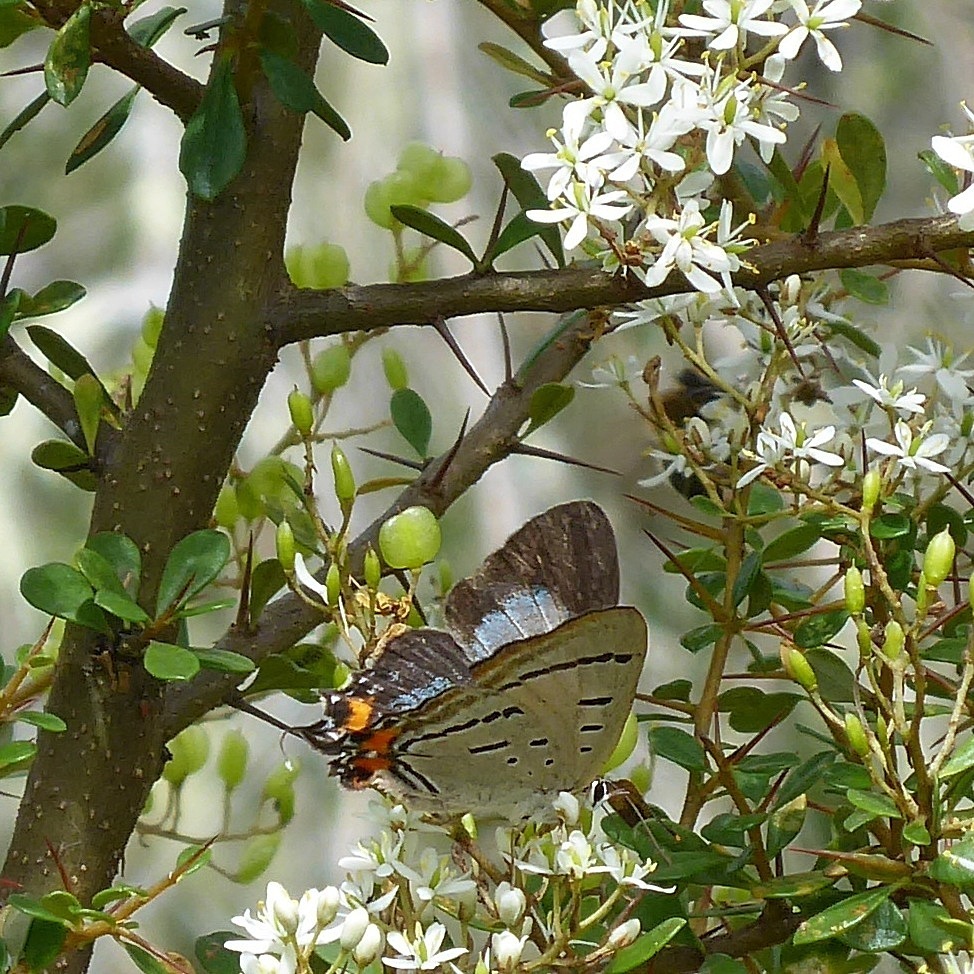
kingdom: Animalia
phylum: Arthropoda
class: Insecta
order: Lepidoptera
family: Lycaenidae
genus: Jalmenus
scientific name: Jalmenus evagoras
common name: Common imperial blue
